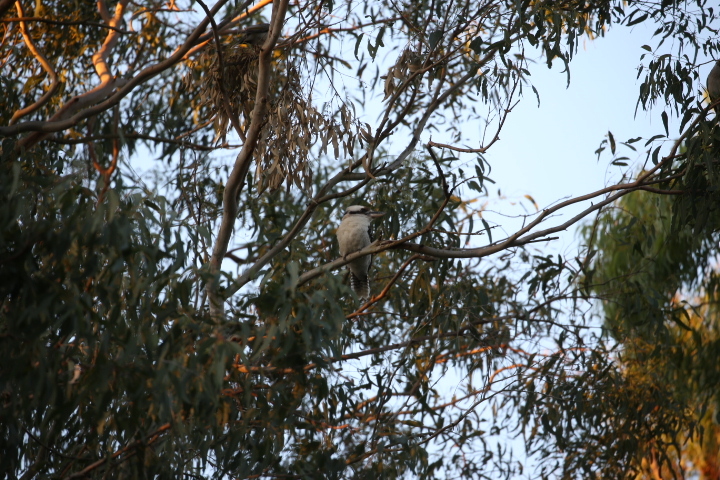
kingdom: Animalia
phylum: Chordata
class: Aves
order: Coraciiformes
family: Alcedinidae
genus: Dacelo
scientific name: Dacelo novaeguineae
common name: Laughing kookaburra
